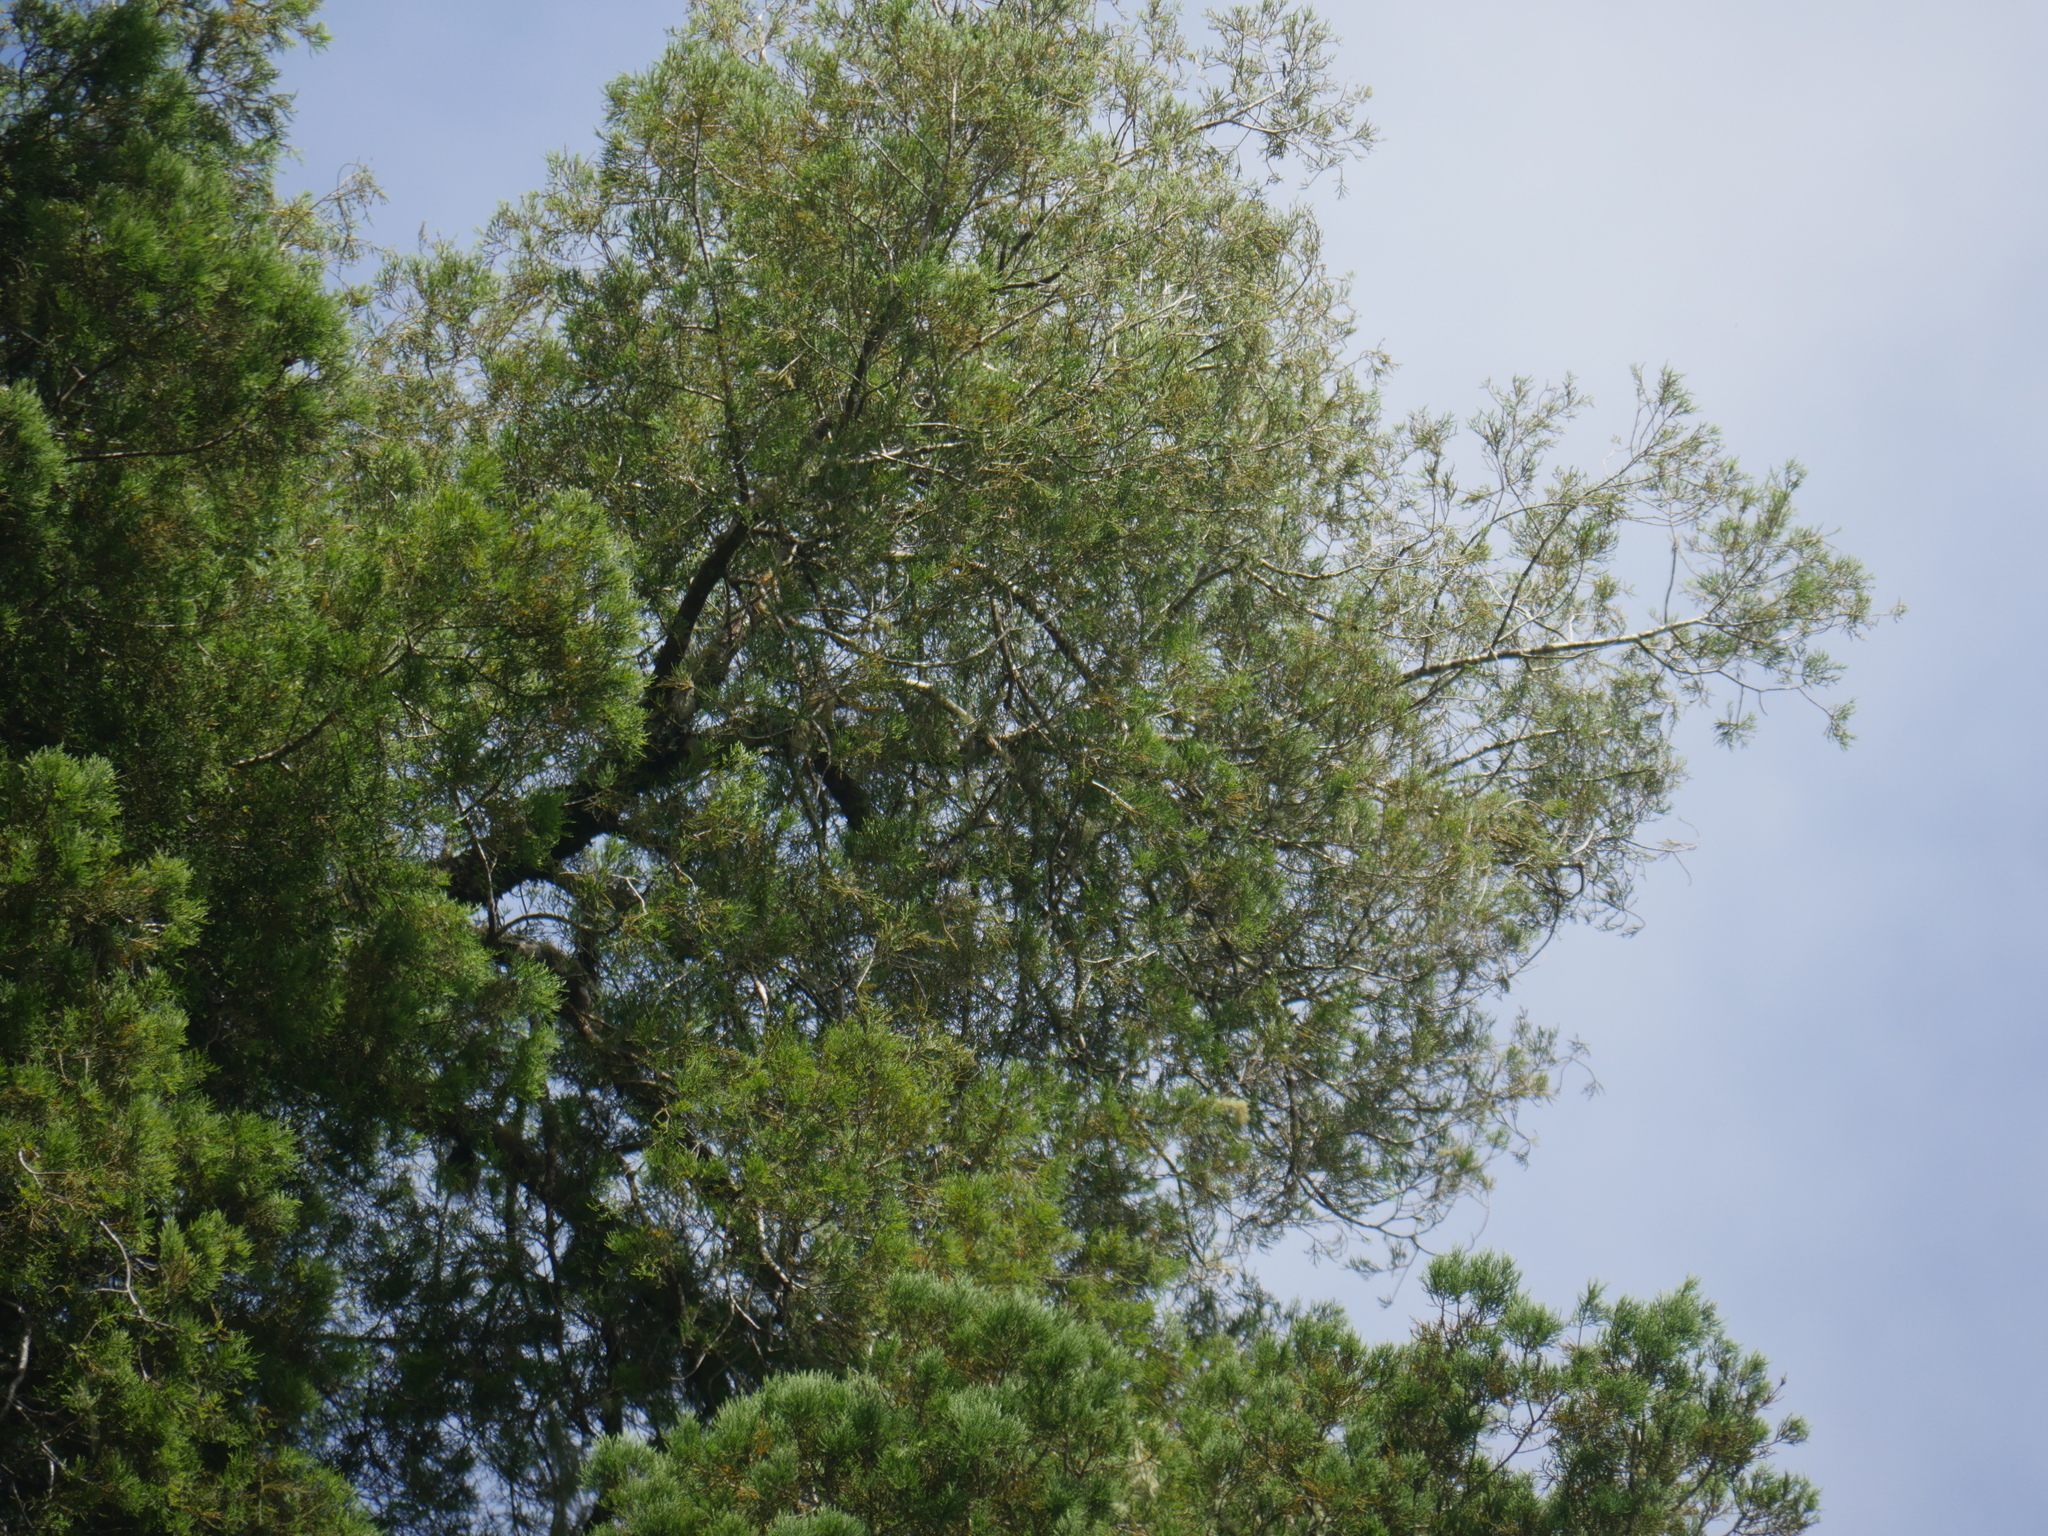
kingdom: Plantae
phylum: Tracheophyta
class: Pinopsida
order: Pinales
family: Podocarpaceae
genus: Dacrycarpus
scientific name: Dacrycarpus dacrydioides
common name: White pine
